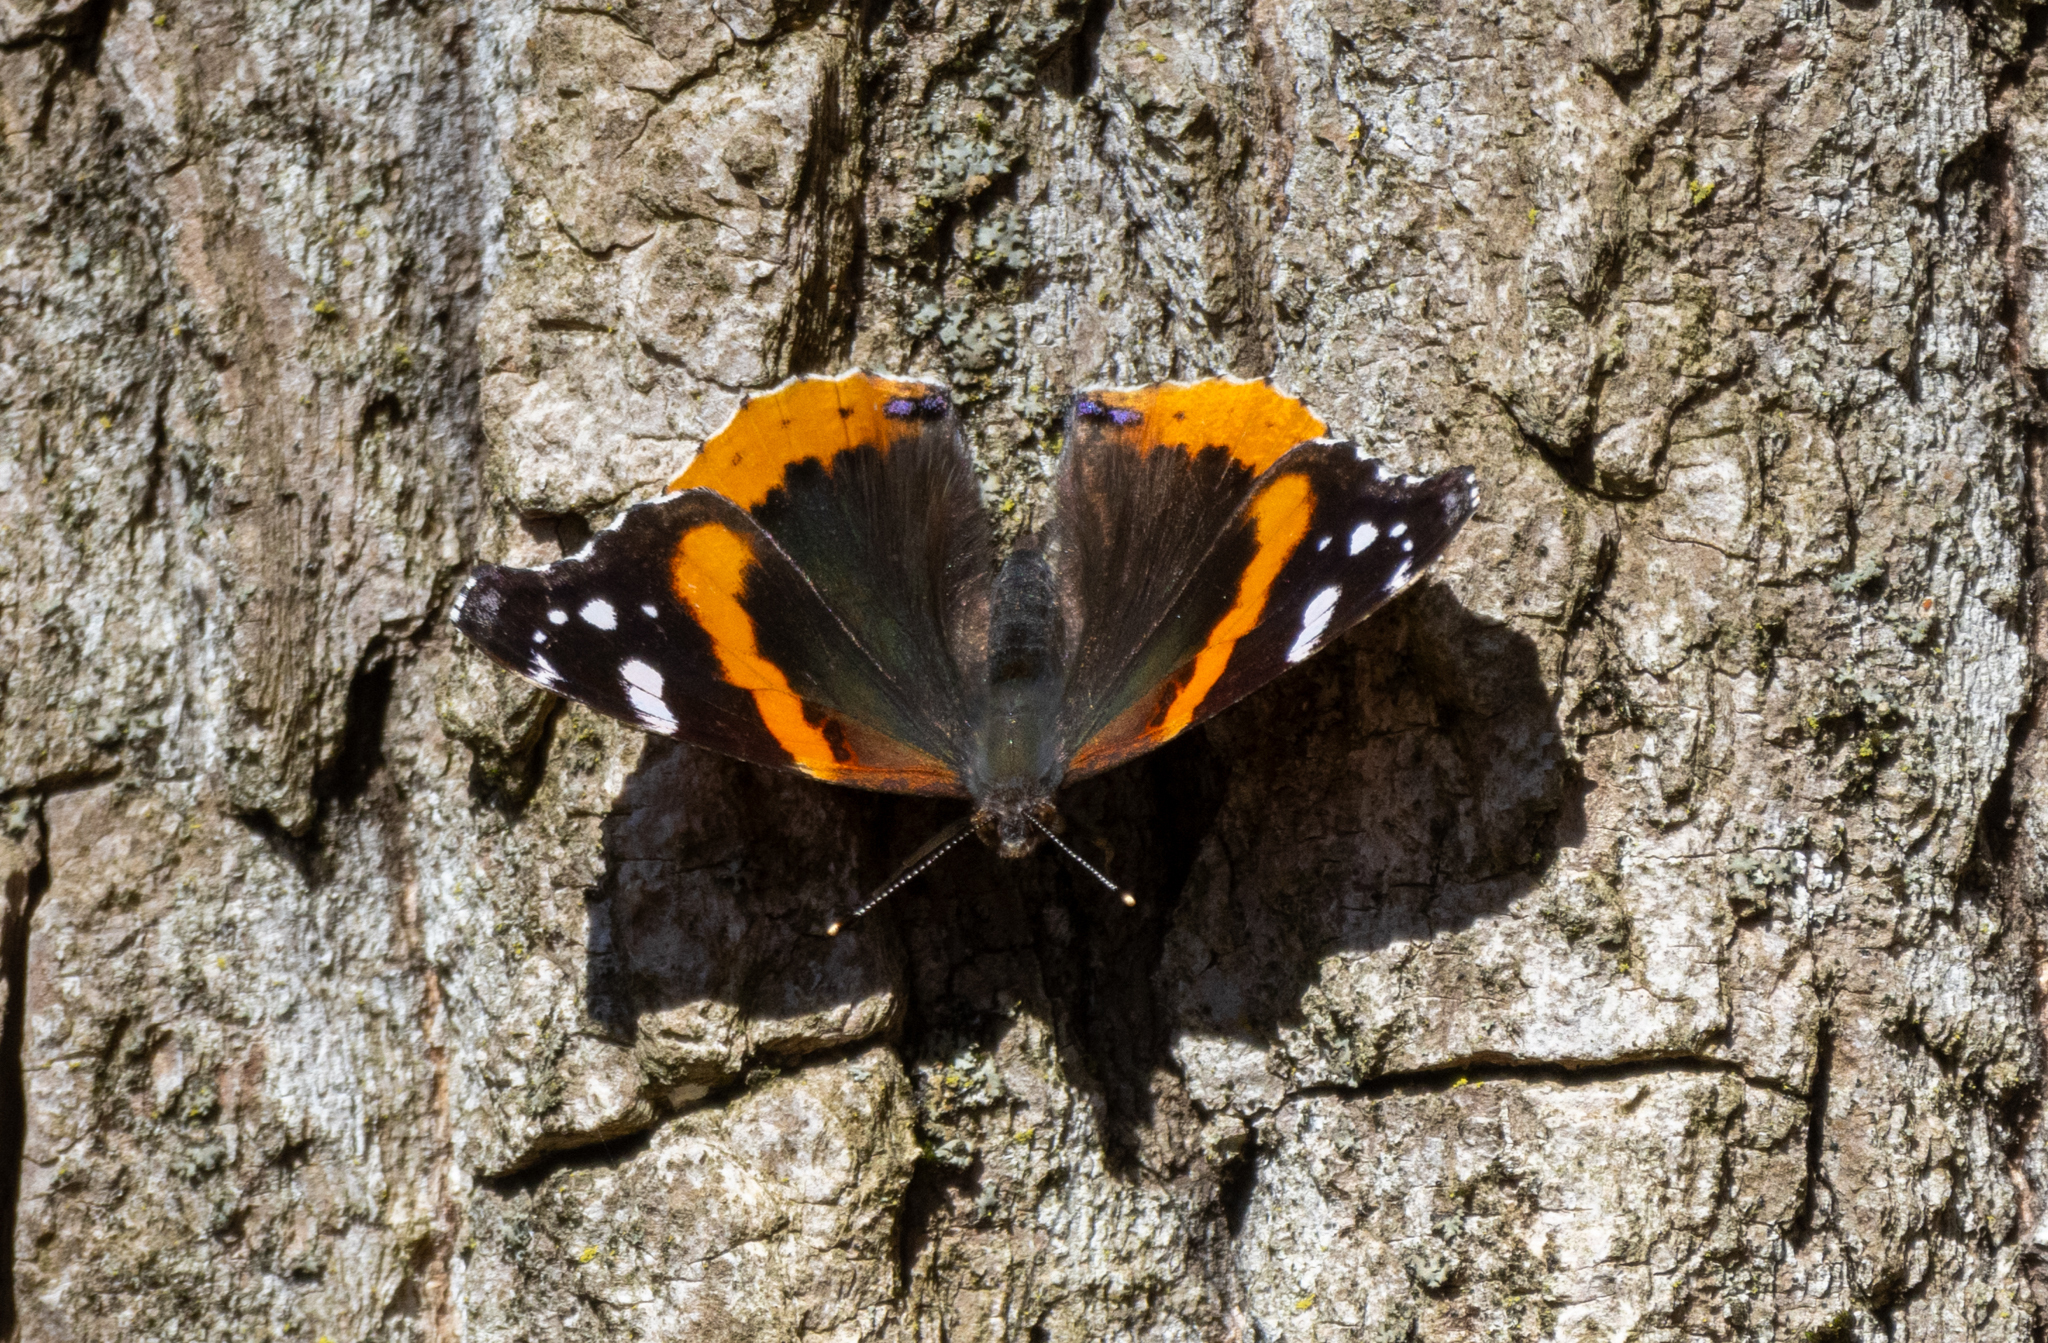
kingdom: Animalia
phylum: Arthropoda
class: Insecta
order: Lepidoptera
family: Nymphalidae
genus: Vanessa
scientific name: Vanessa atalanta
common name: Red admiral
